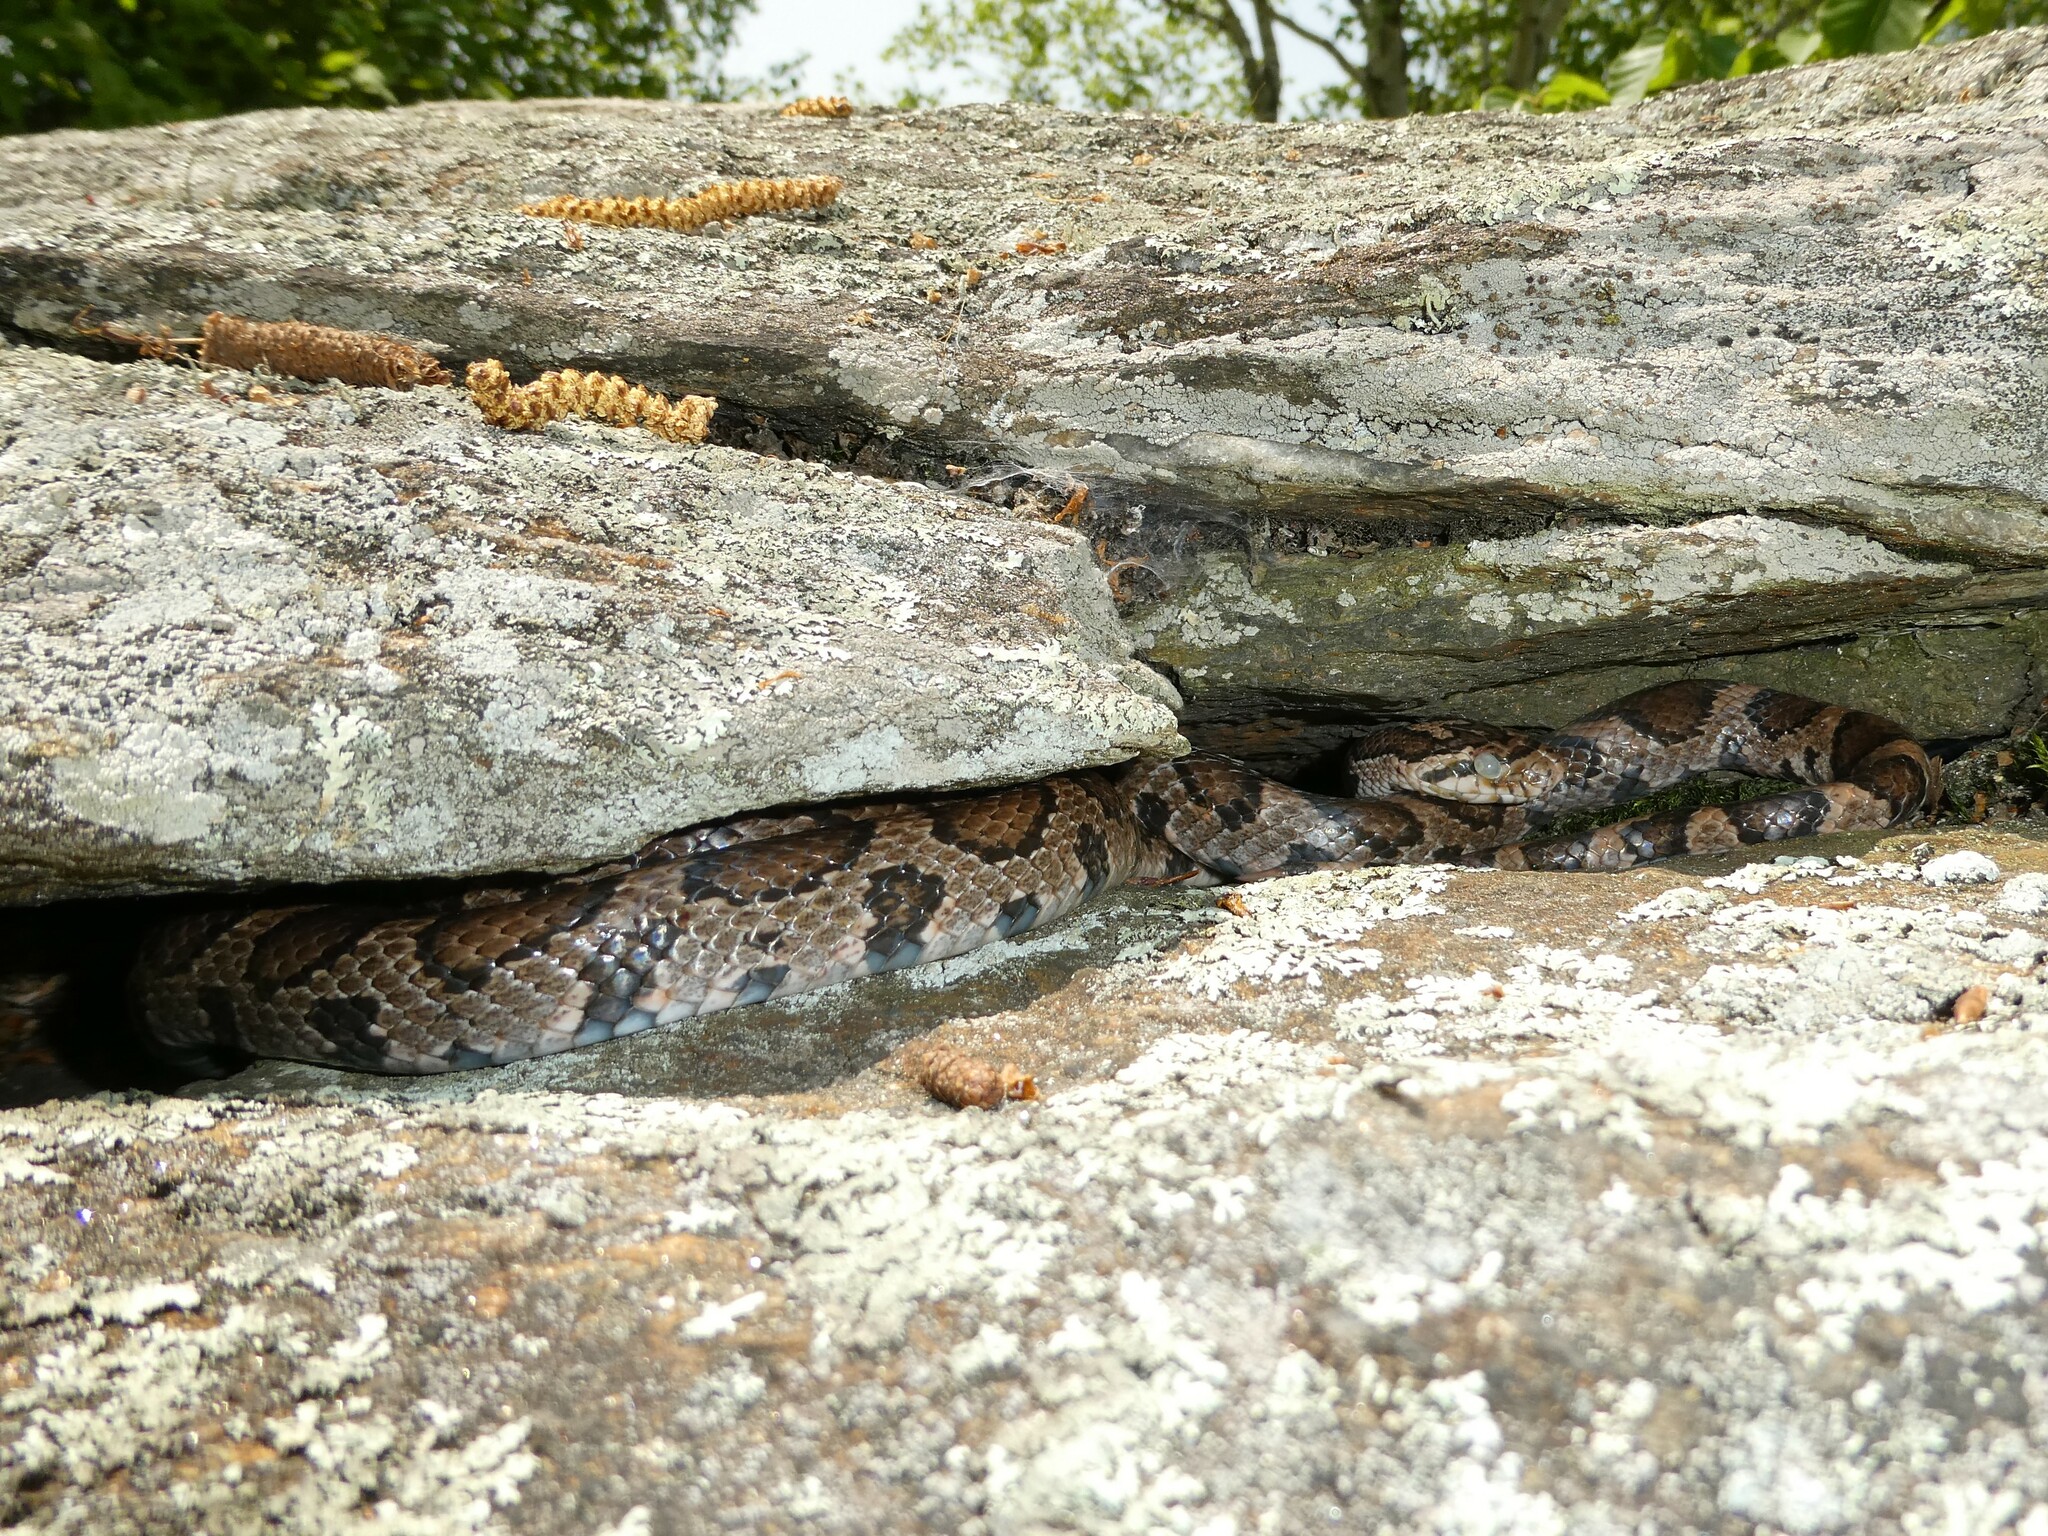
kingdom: Animalia
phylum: Chordata
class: Squamata
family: Colubridae
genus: Lampropeltis
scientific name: Lampropeltis triangulum
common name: Eastern milksnake
